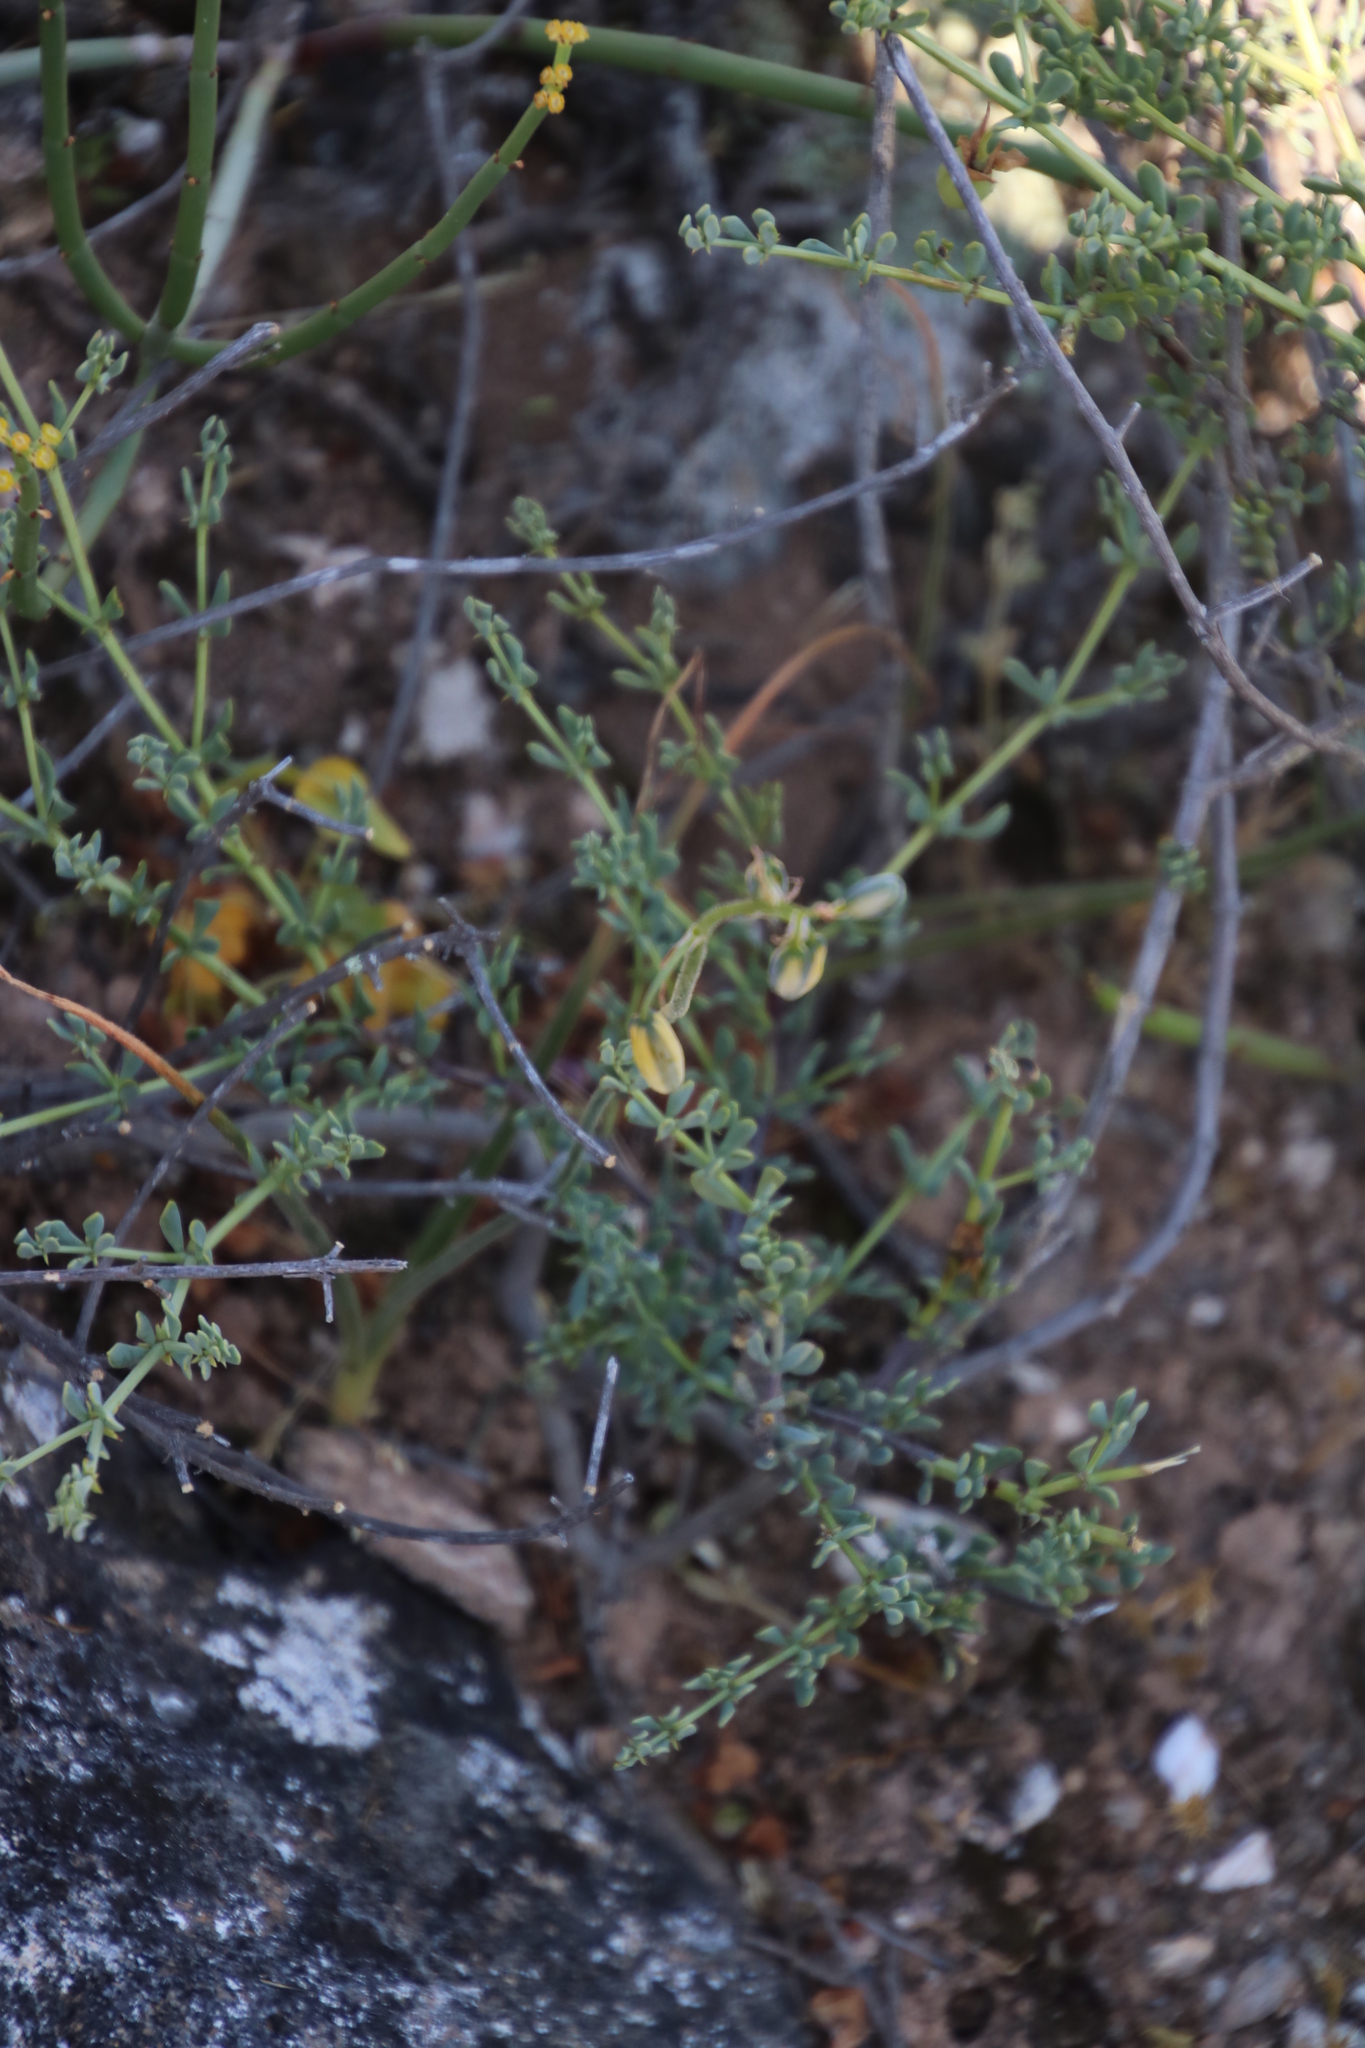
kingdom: Plantae
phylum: Tracheophyta
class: Magnoliopsida
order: Zygophyllales
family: Zygophyllaceae
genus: Roepera
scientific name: Roepera spinosa
